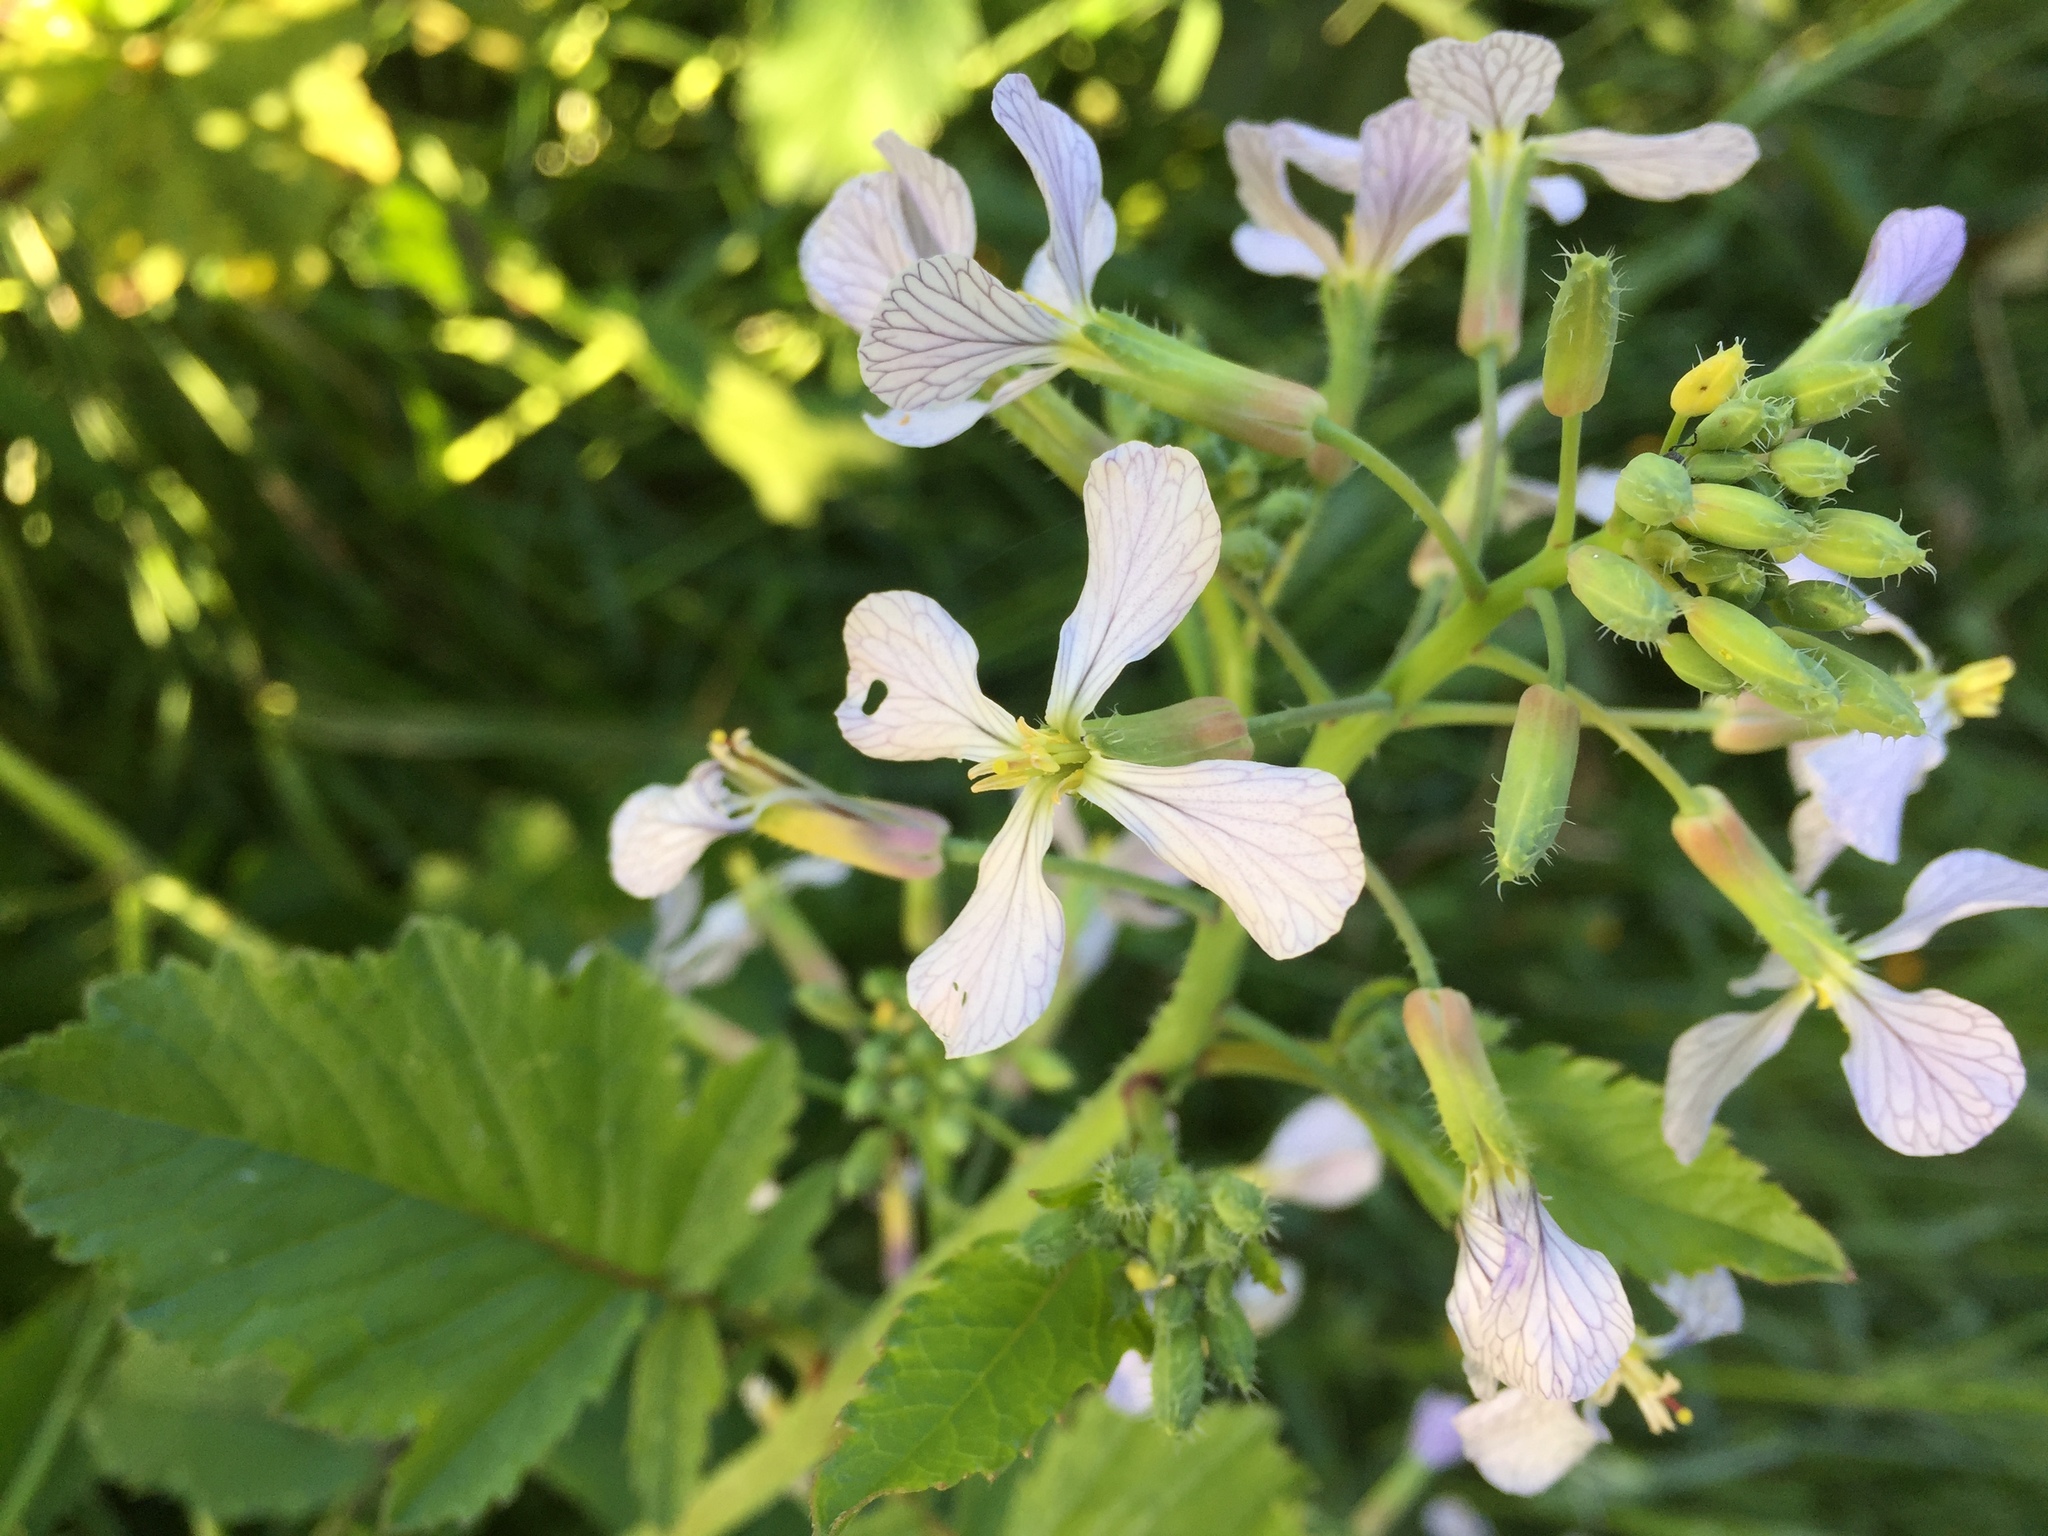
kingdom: Plantae
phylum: Tracheophyta
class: Magnoliopsida
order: Brassicales
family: Brassicaceae
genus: Raphanus
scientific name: Raphanus raphanistrum
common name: Wild radish
